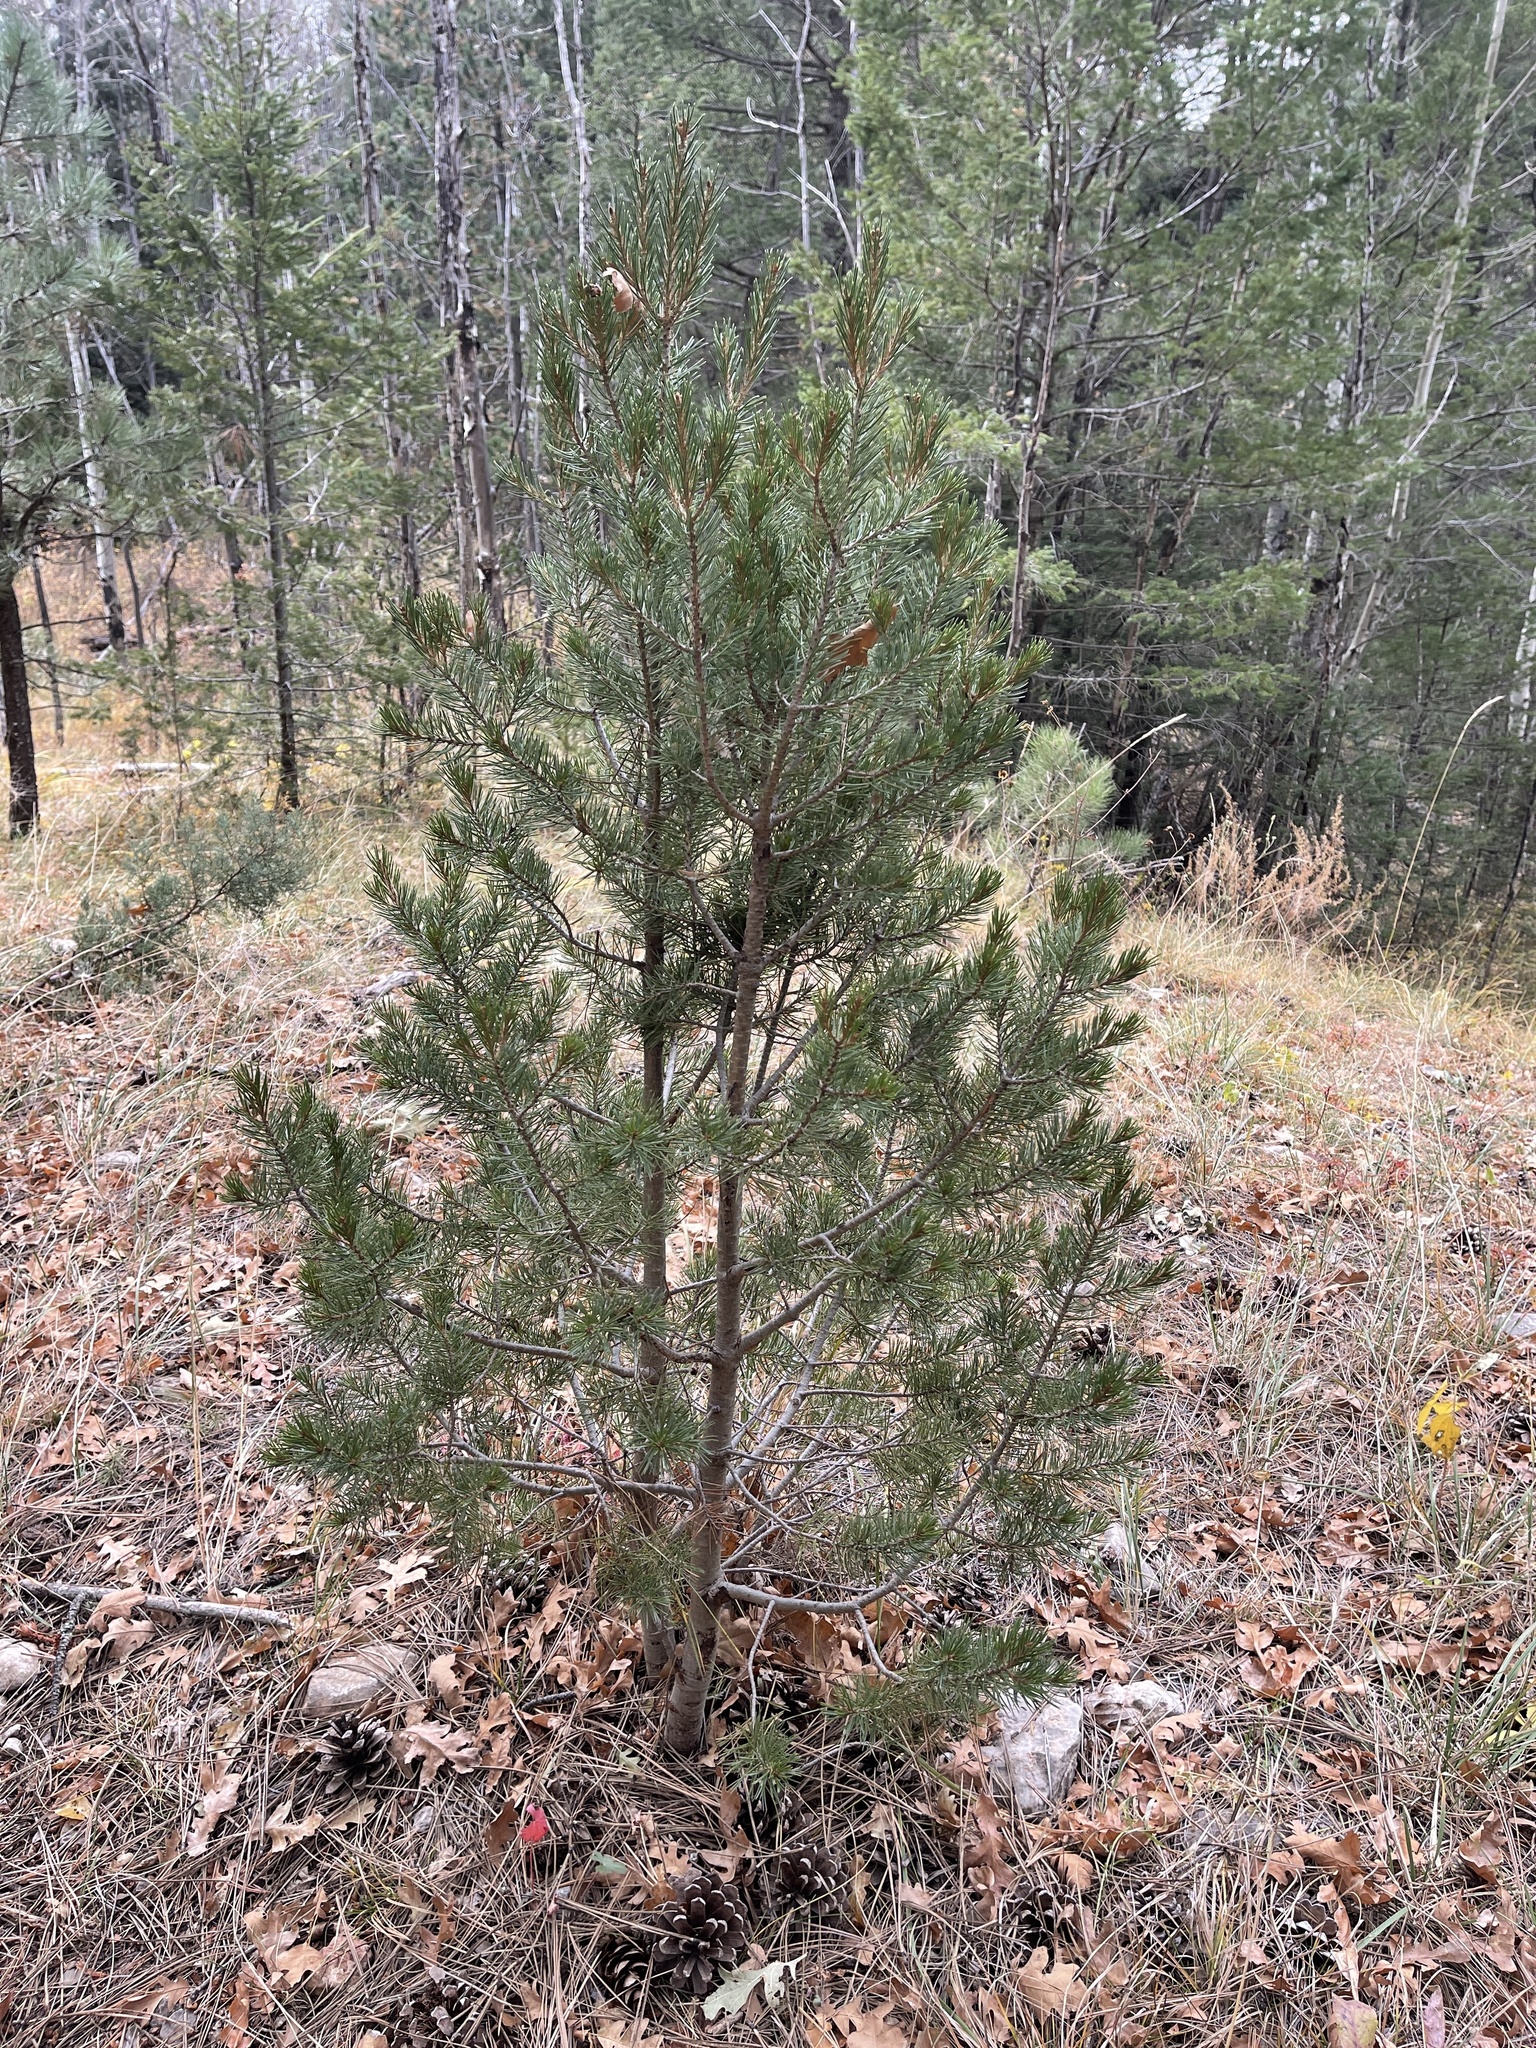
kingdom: Plantae
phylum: Tracheophyta
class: Pinopsida
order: Pinales
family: Pinaceae
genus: Pinus
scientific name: Pinus edulis
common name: Colorado pinyon
